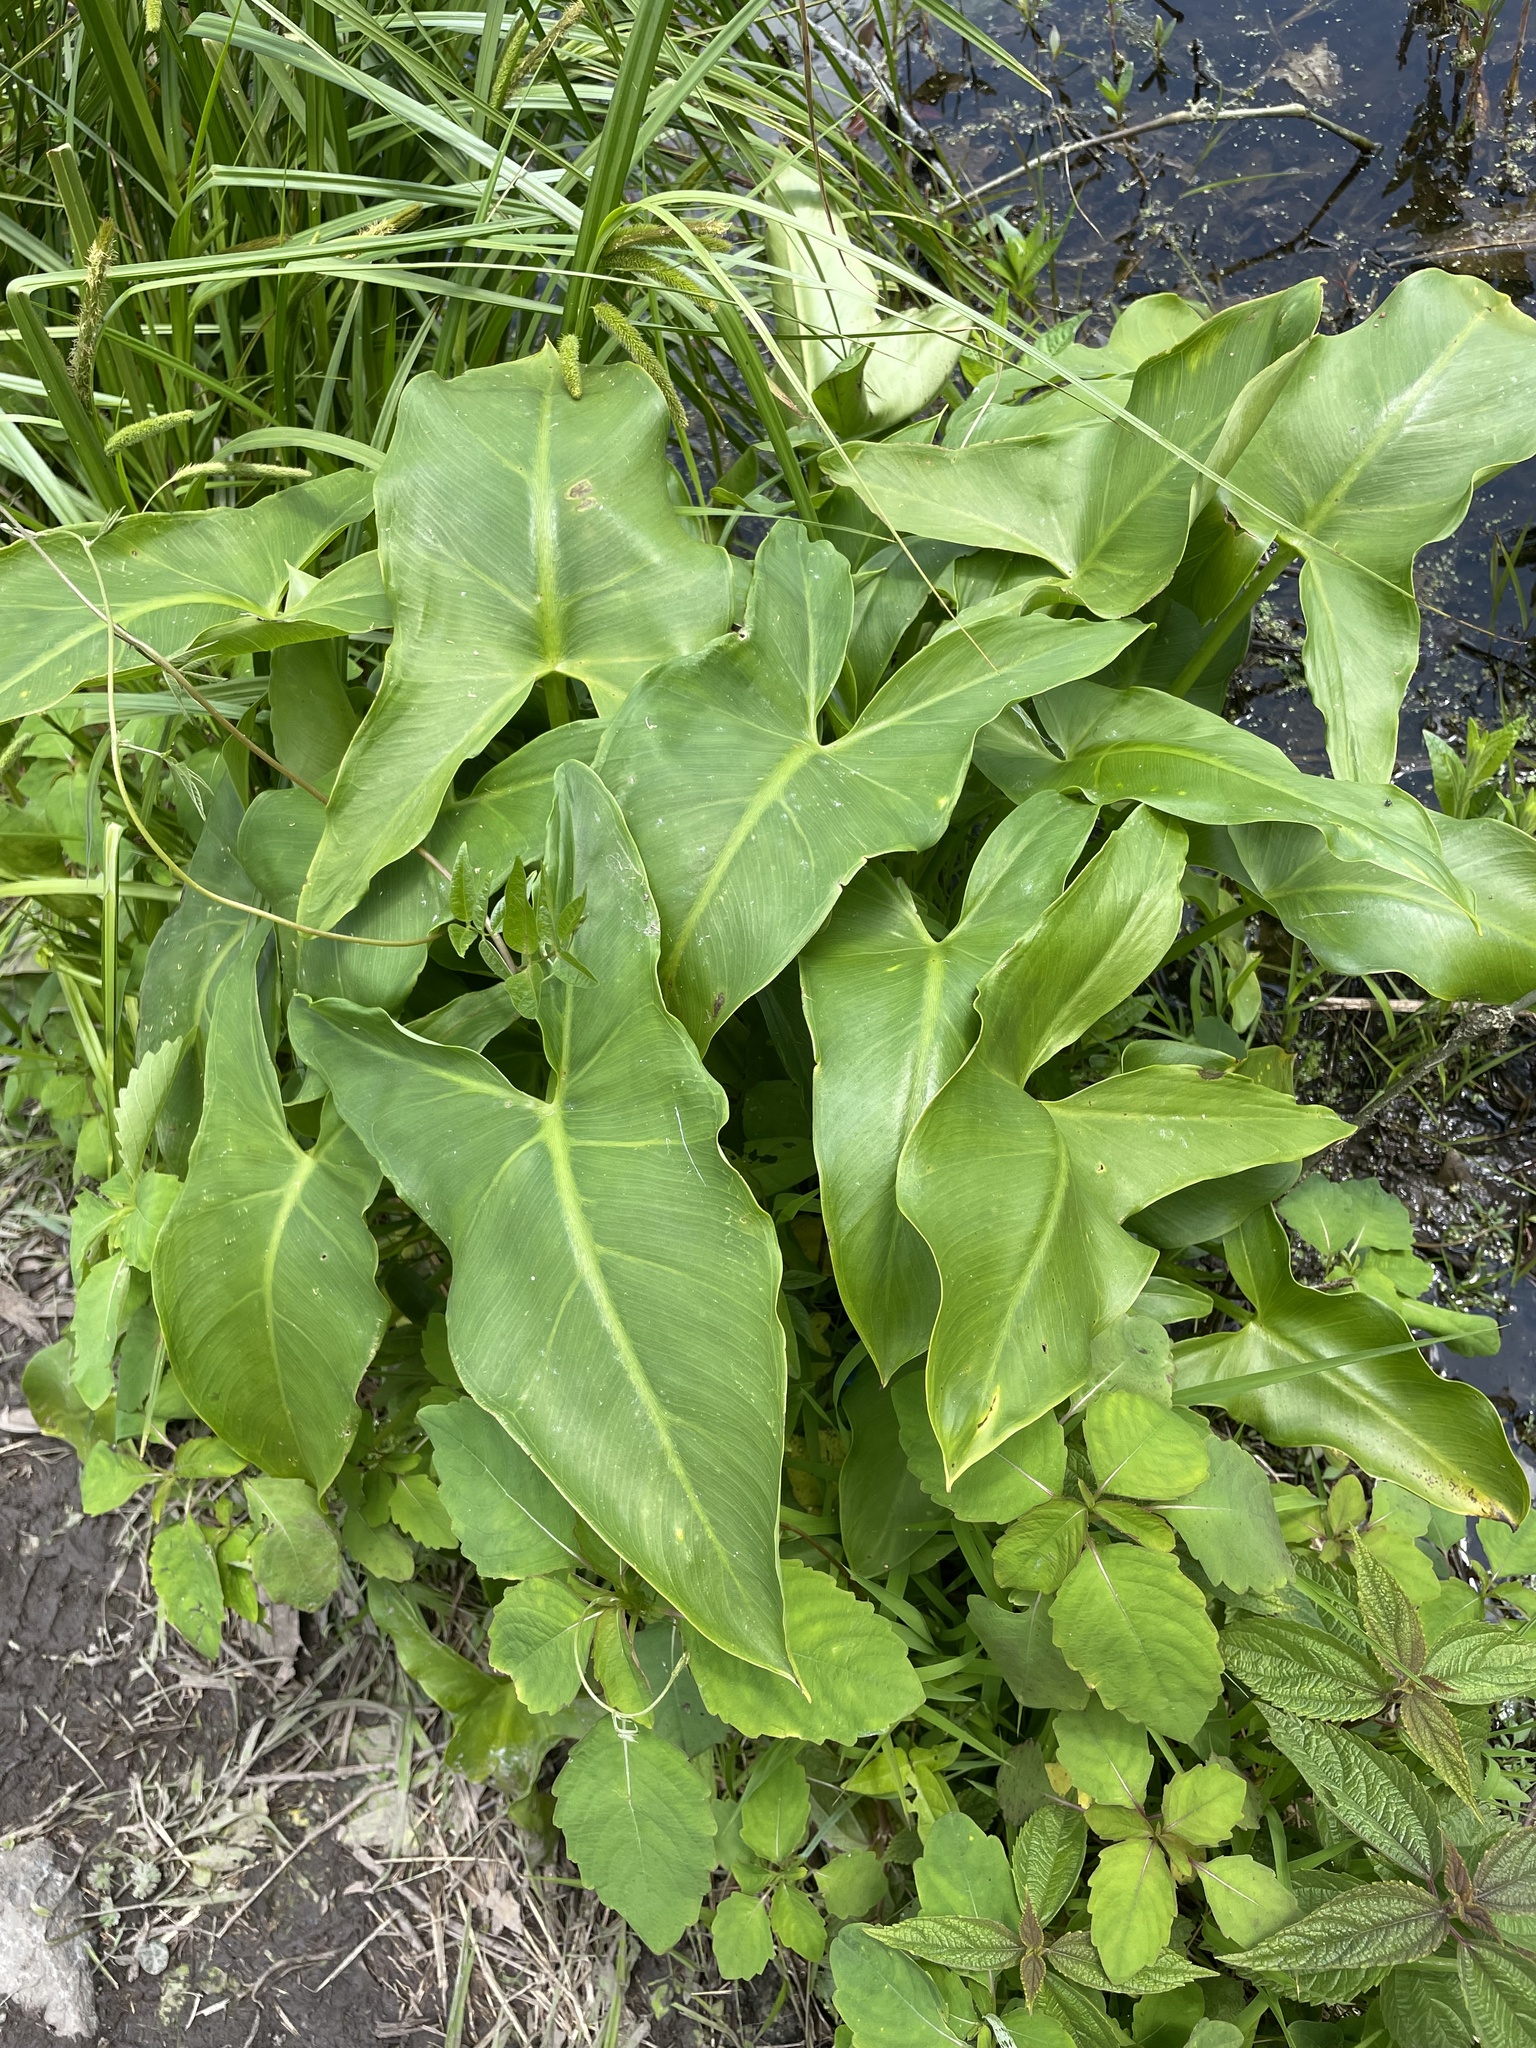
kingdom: Plantae
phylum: Tracheophyta
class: Liliopsida
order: Alismatales
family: Araceae
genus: Peltandra
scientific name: Peltandra virginica
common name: Arrow arum
